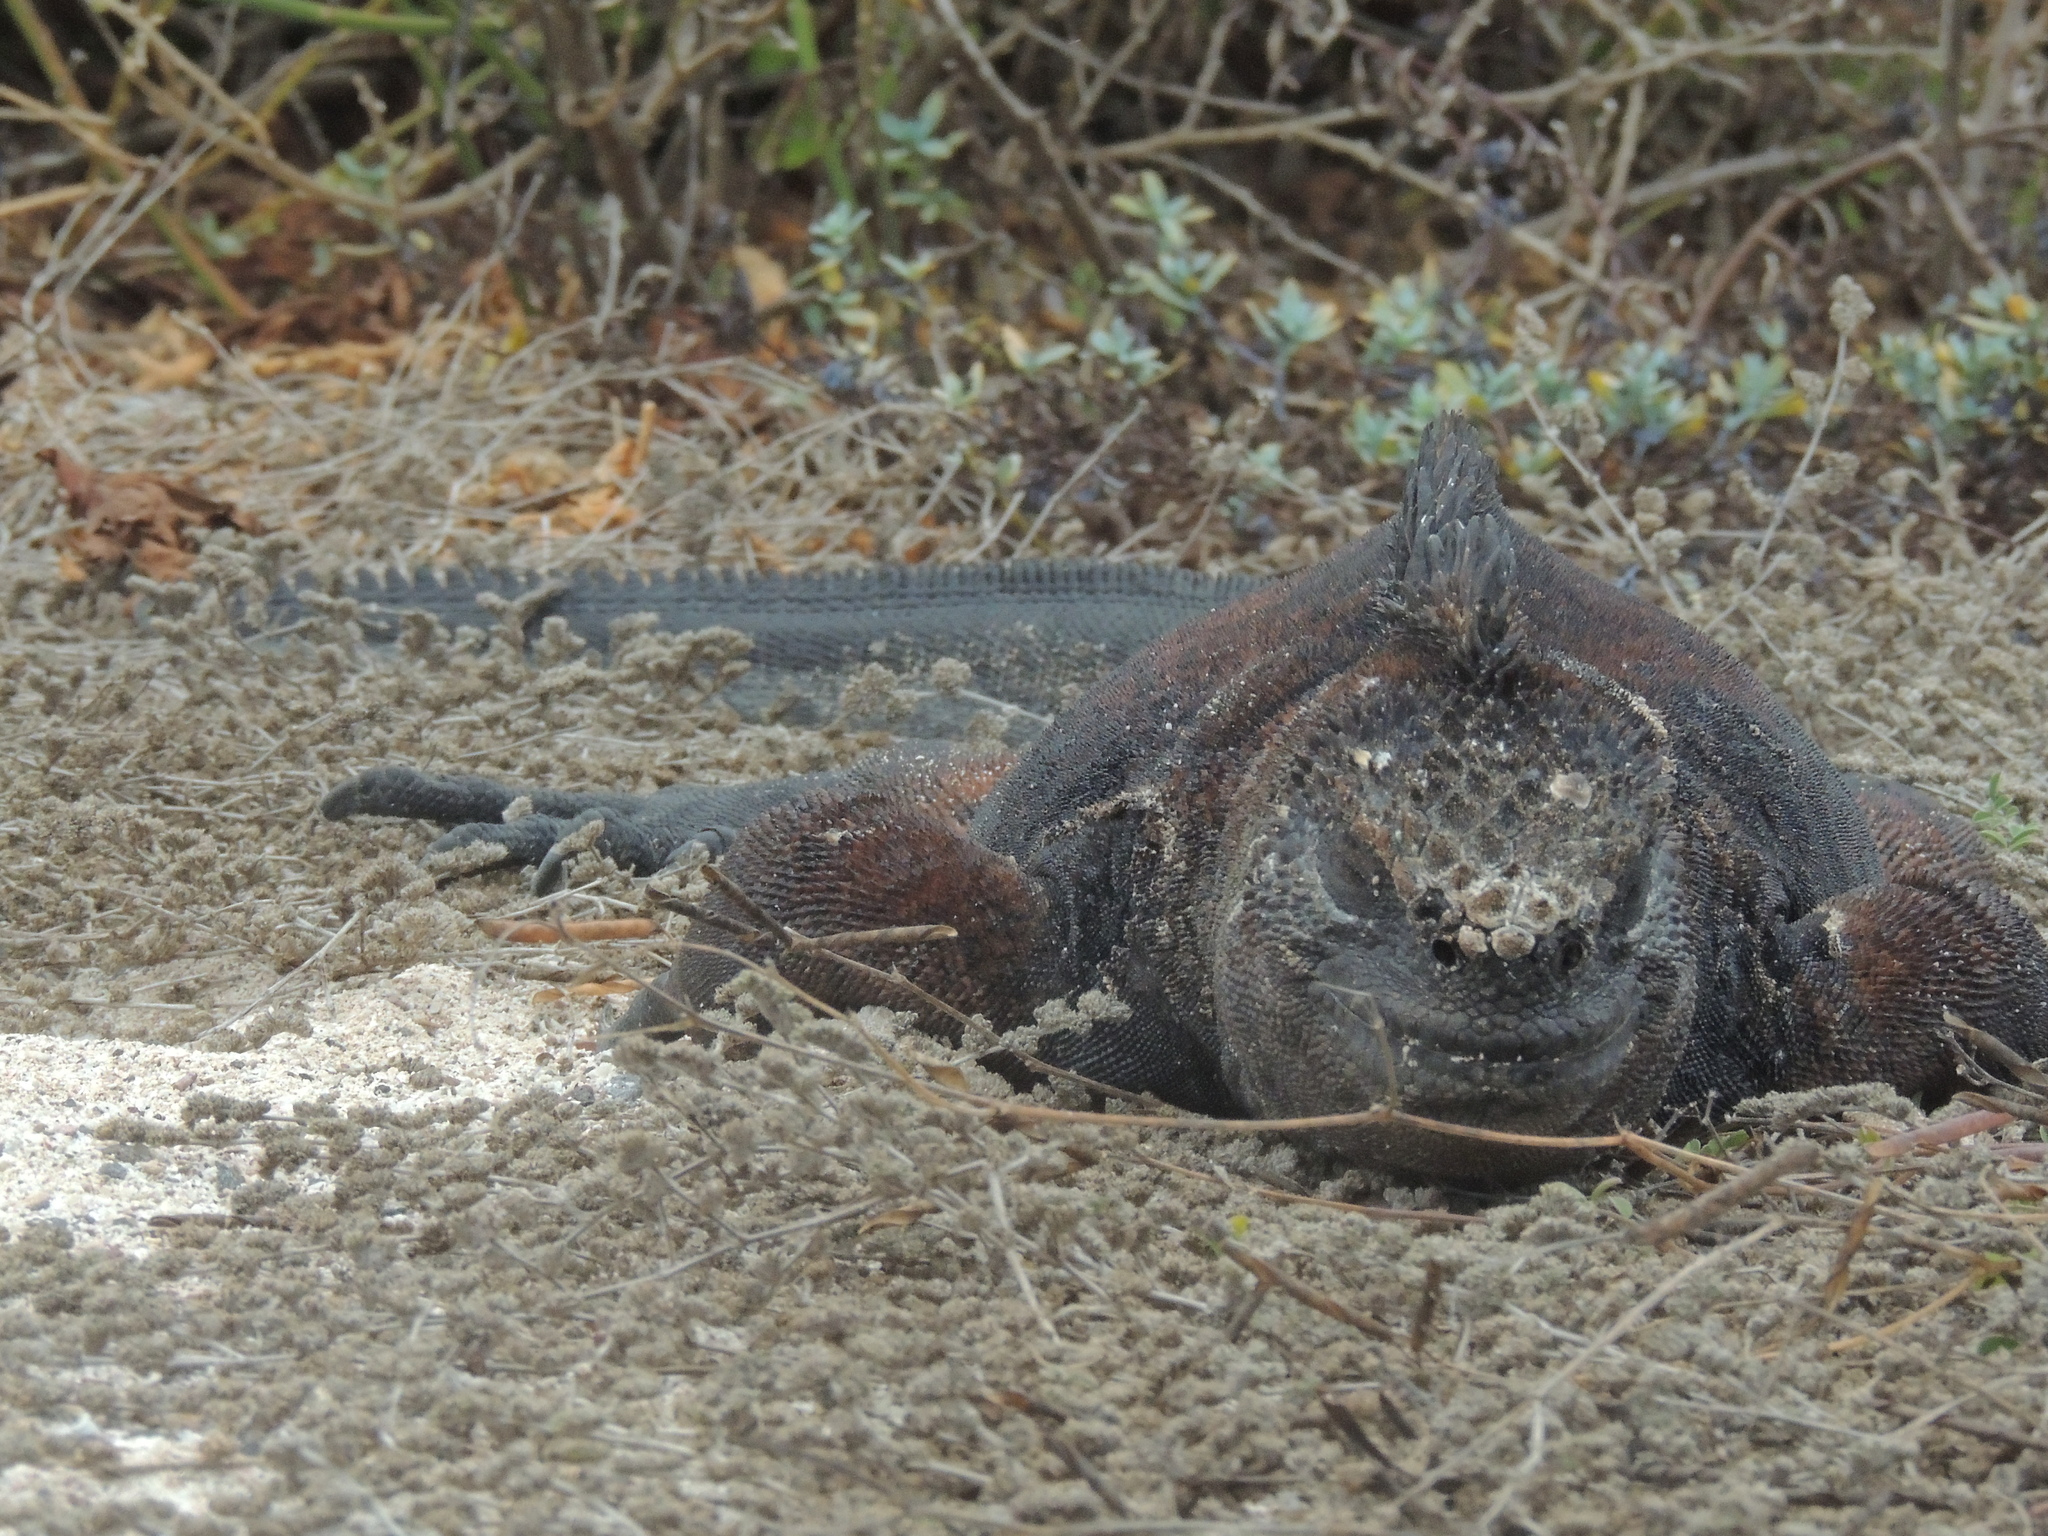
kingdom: Animalia
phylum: Chordata
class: Squamata
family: Iguanidae
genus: Amblyrhynchus
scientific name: Amblyrhynchus cristatus
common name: Marine iguana
